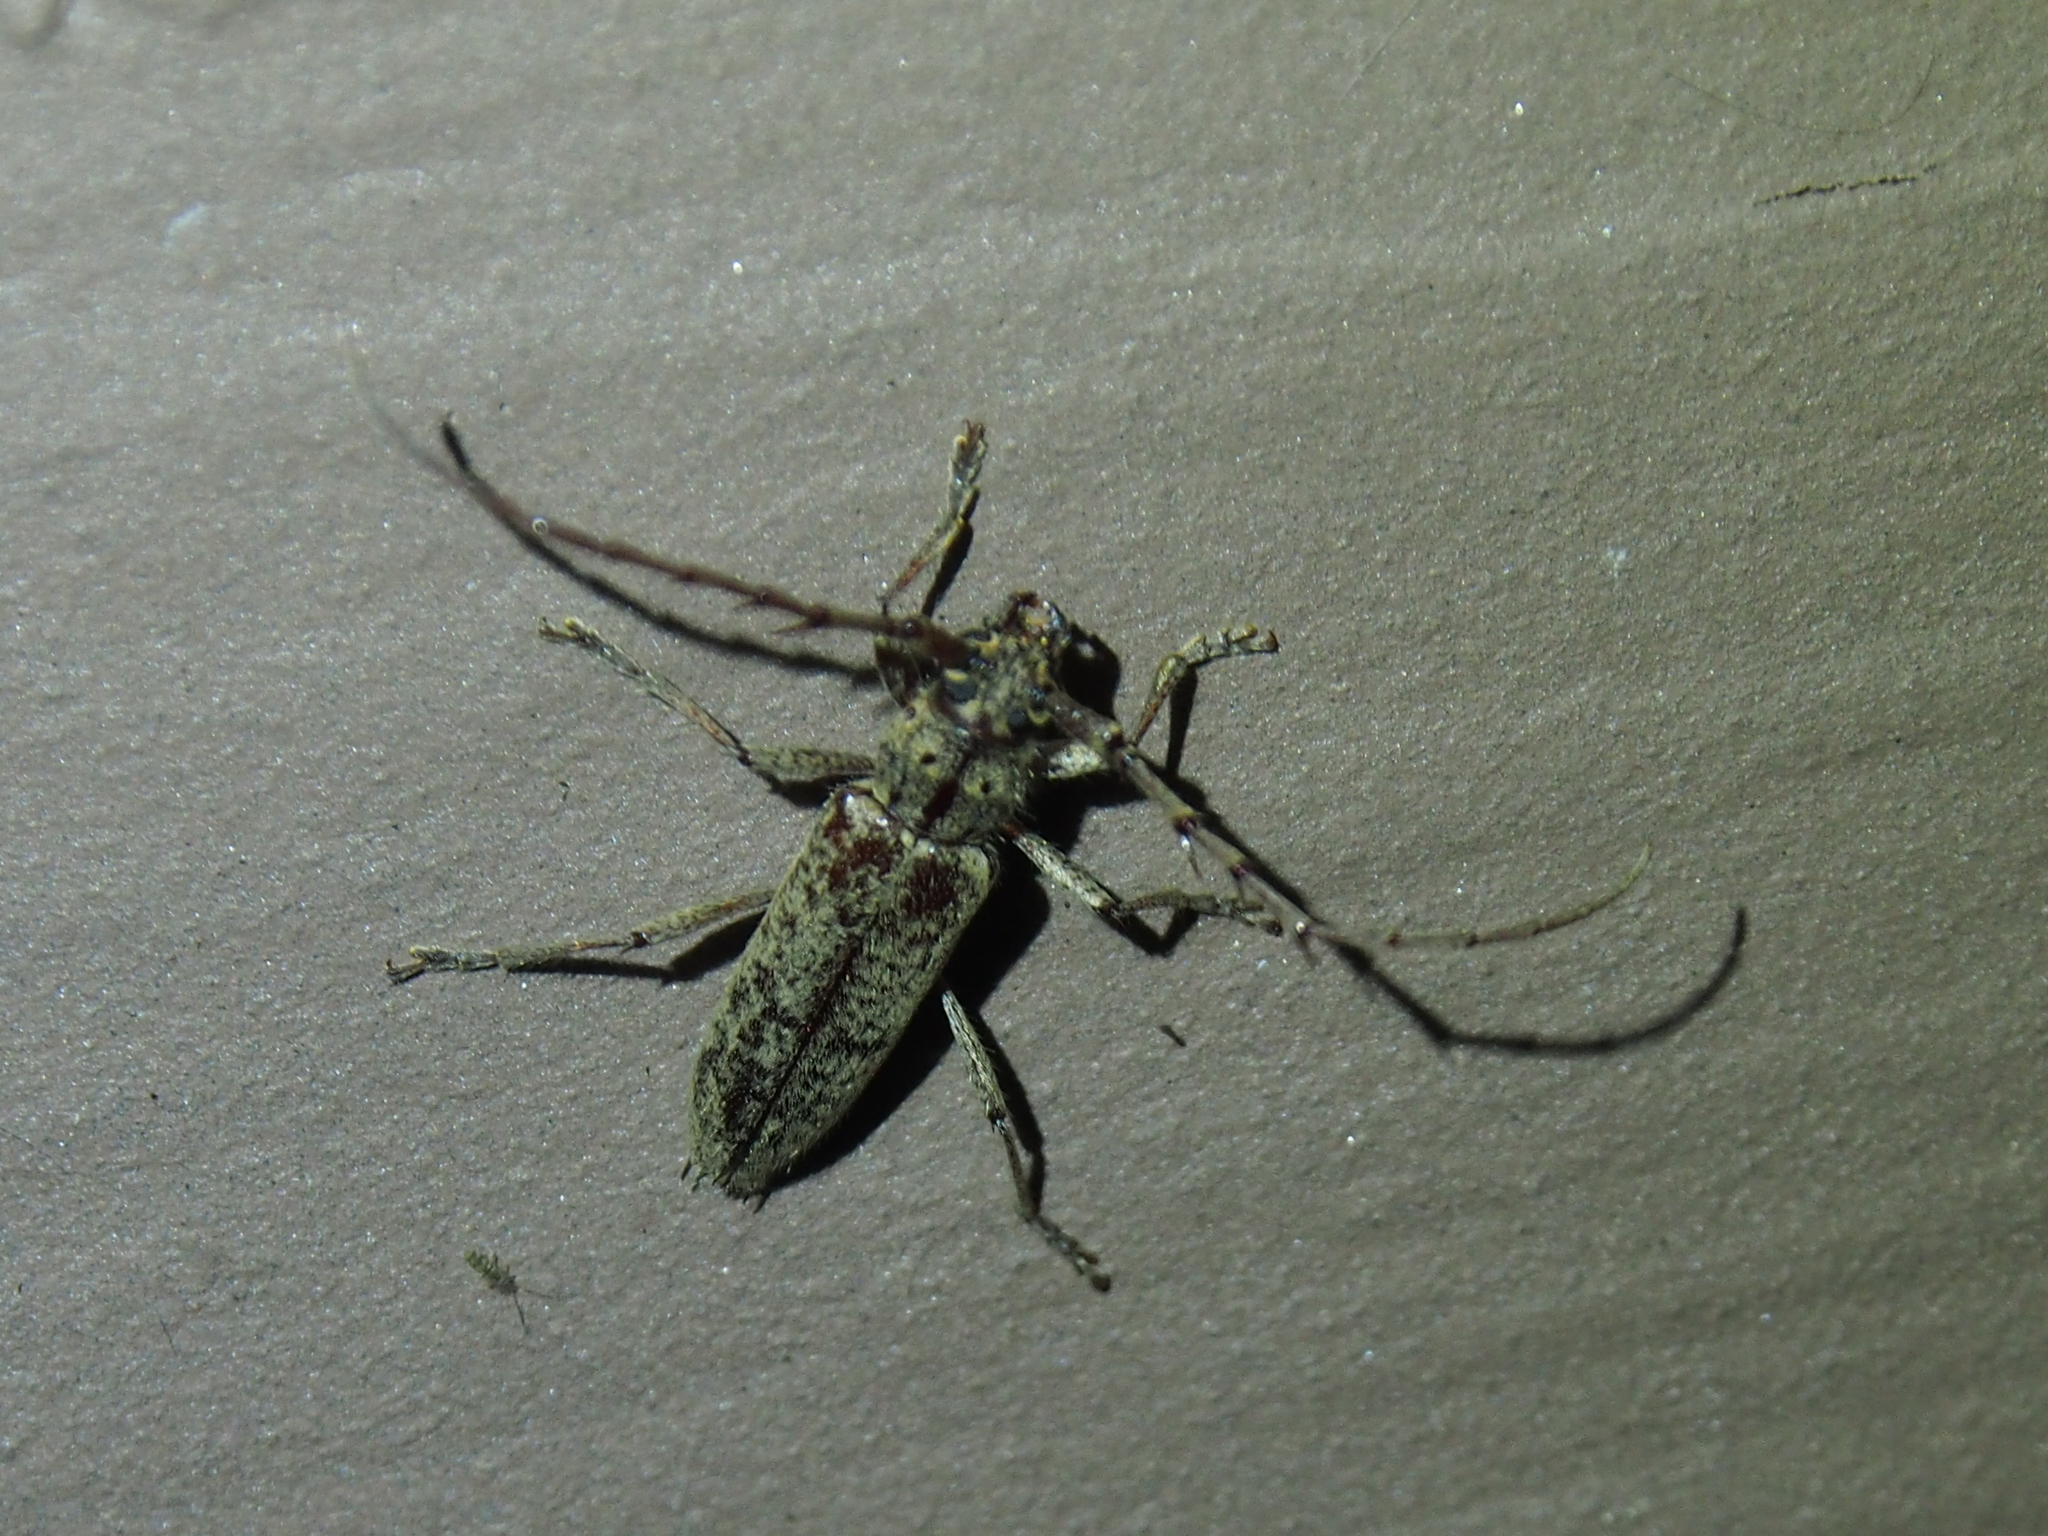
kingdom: Animalia
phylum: Arthropoda
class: Insecta
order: Coleoptera
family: Cerambycidae
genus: Elaphidion
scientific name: Elaphidion mucronatum
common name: Spined oak borer
